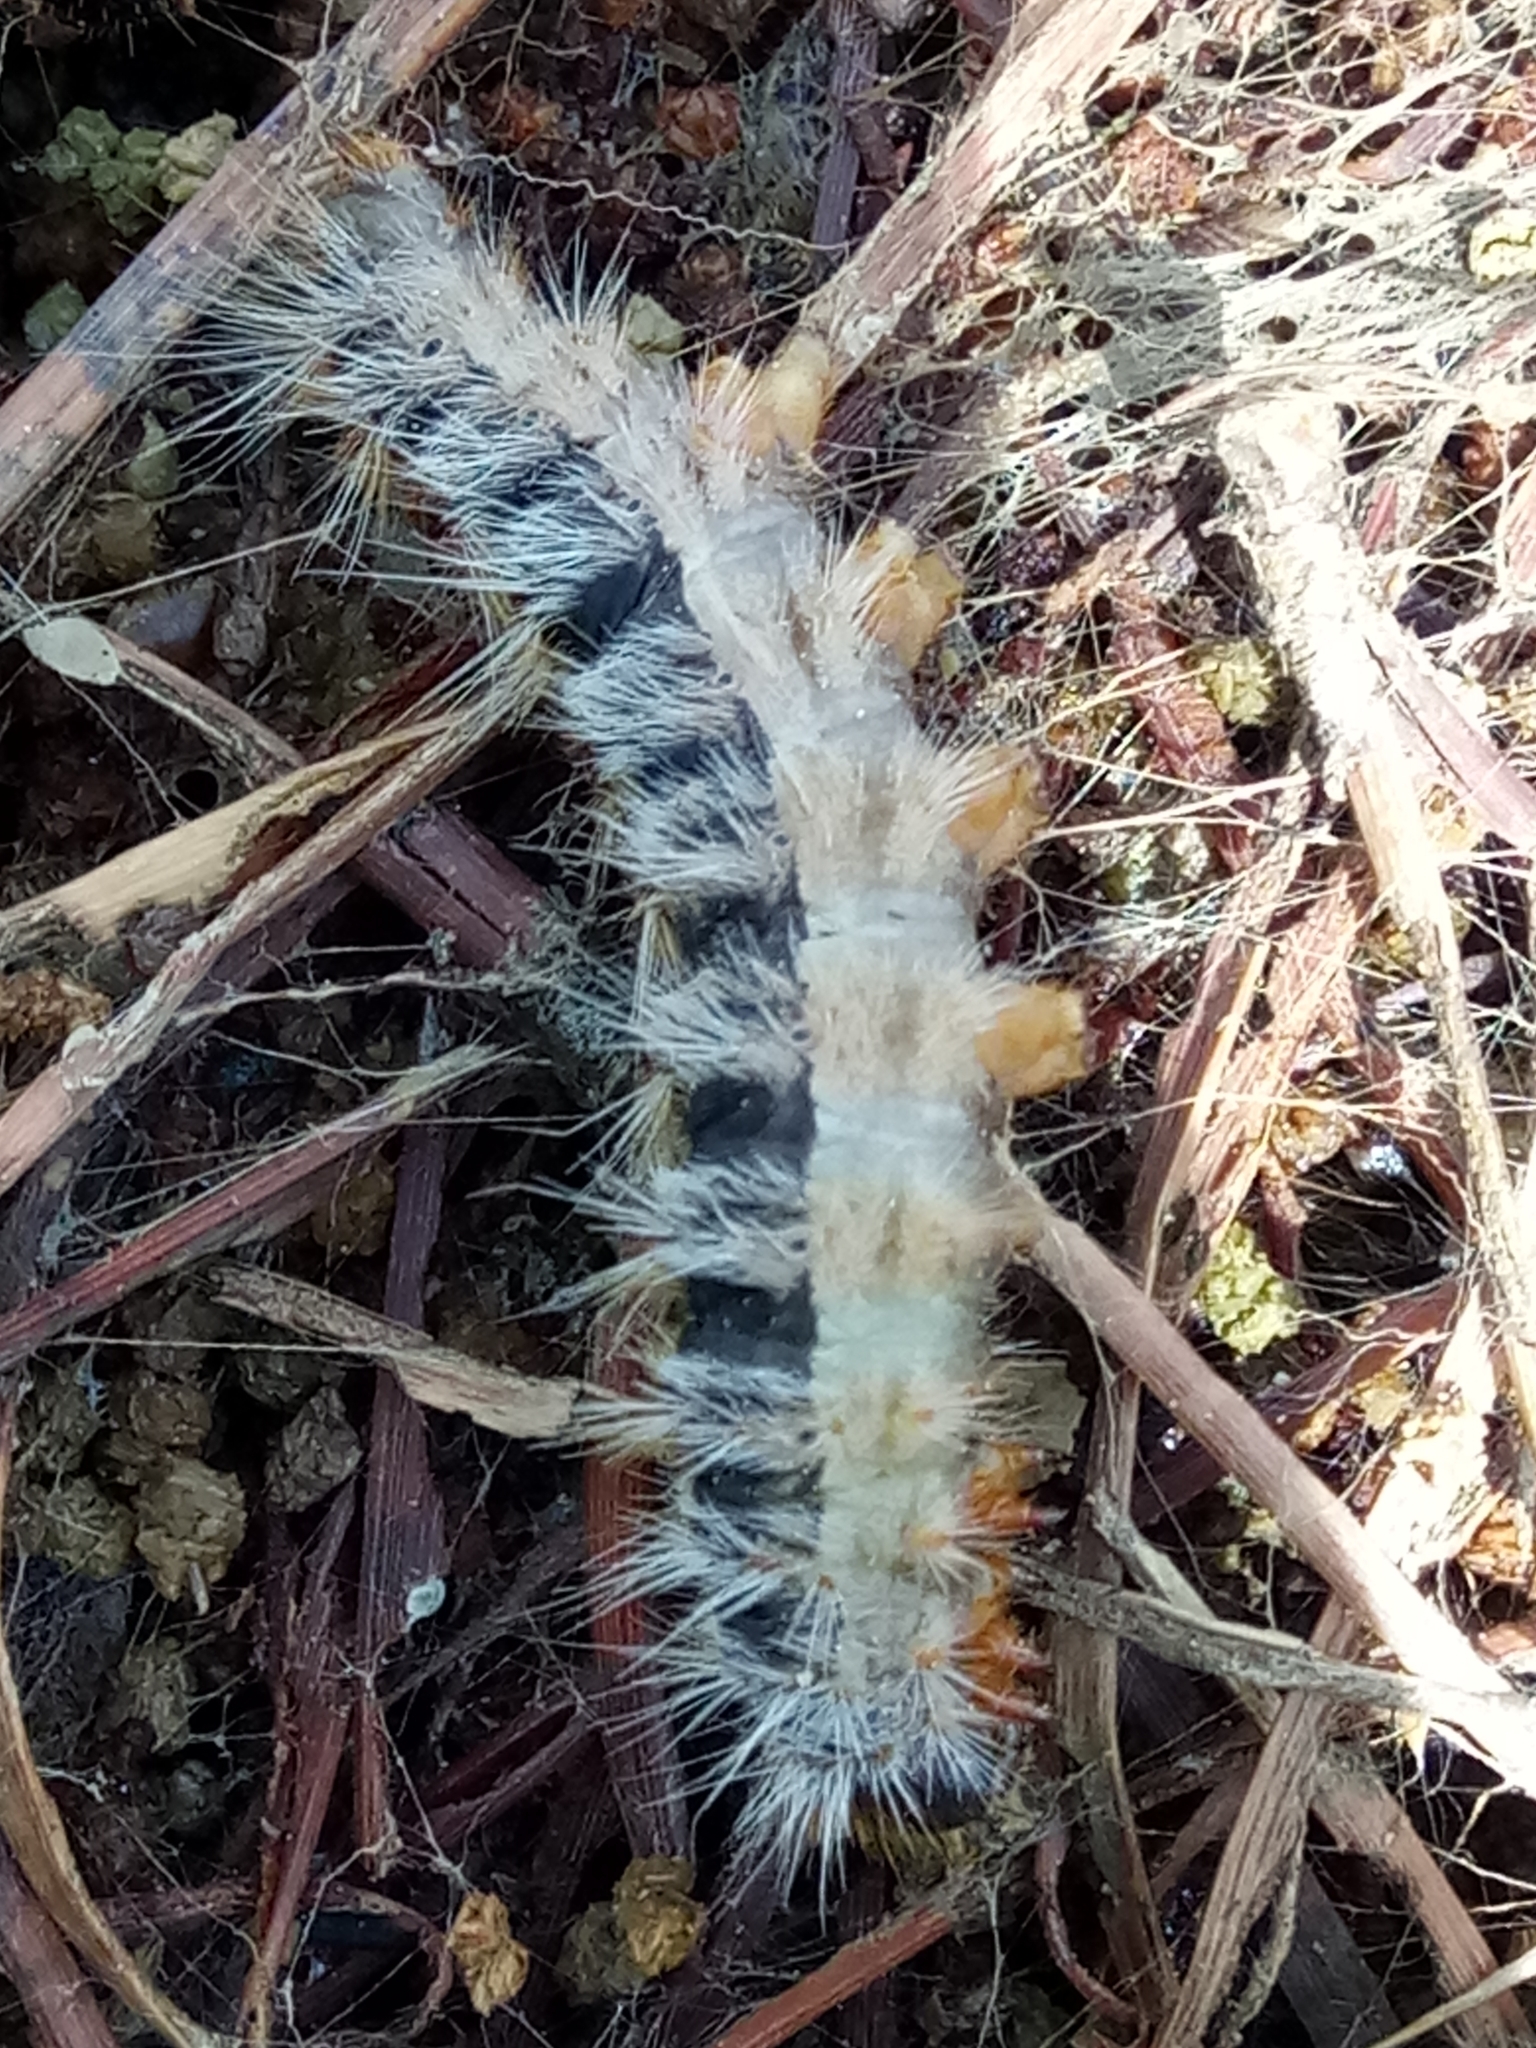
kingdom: Animalia
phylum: Arthropoda
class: Insecta
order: Lepidoptera
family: Notodontidae
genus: Thaumetopoea
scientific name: Thaumetopoea pityocampa
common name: Pine processionary
